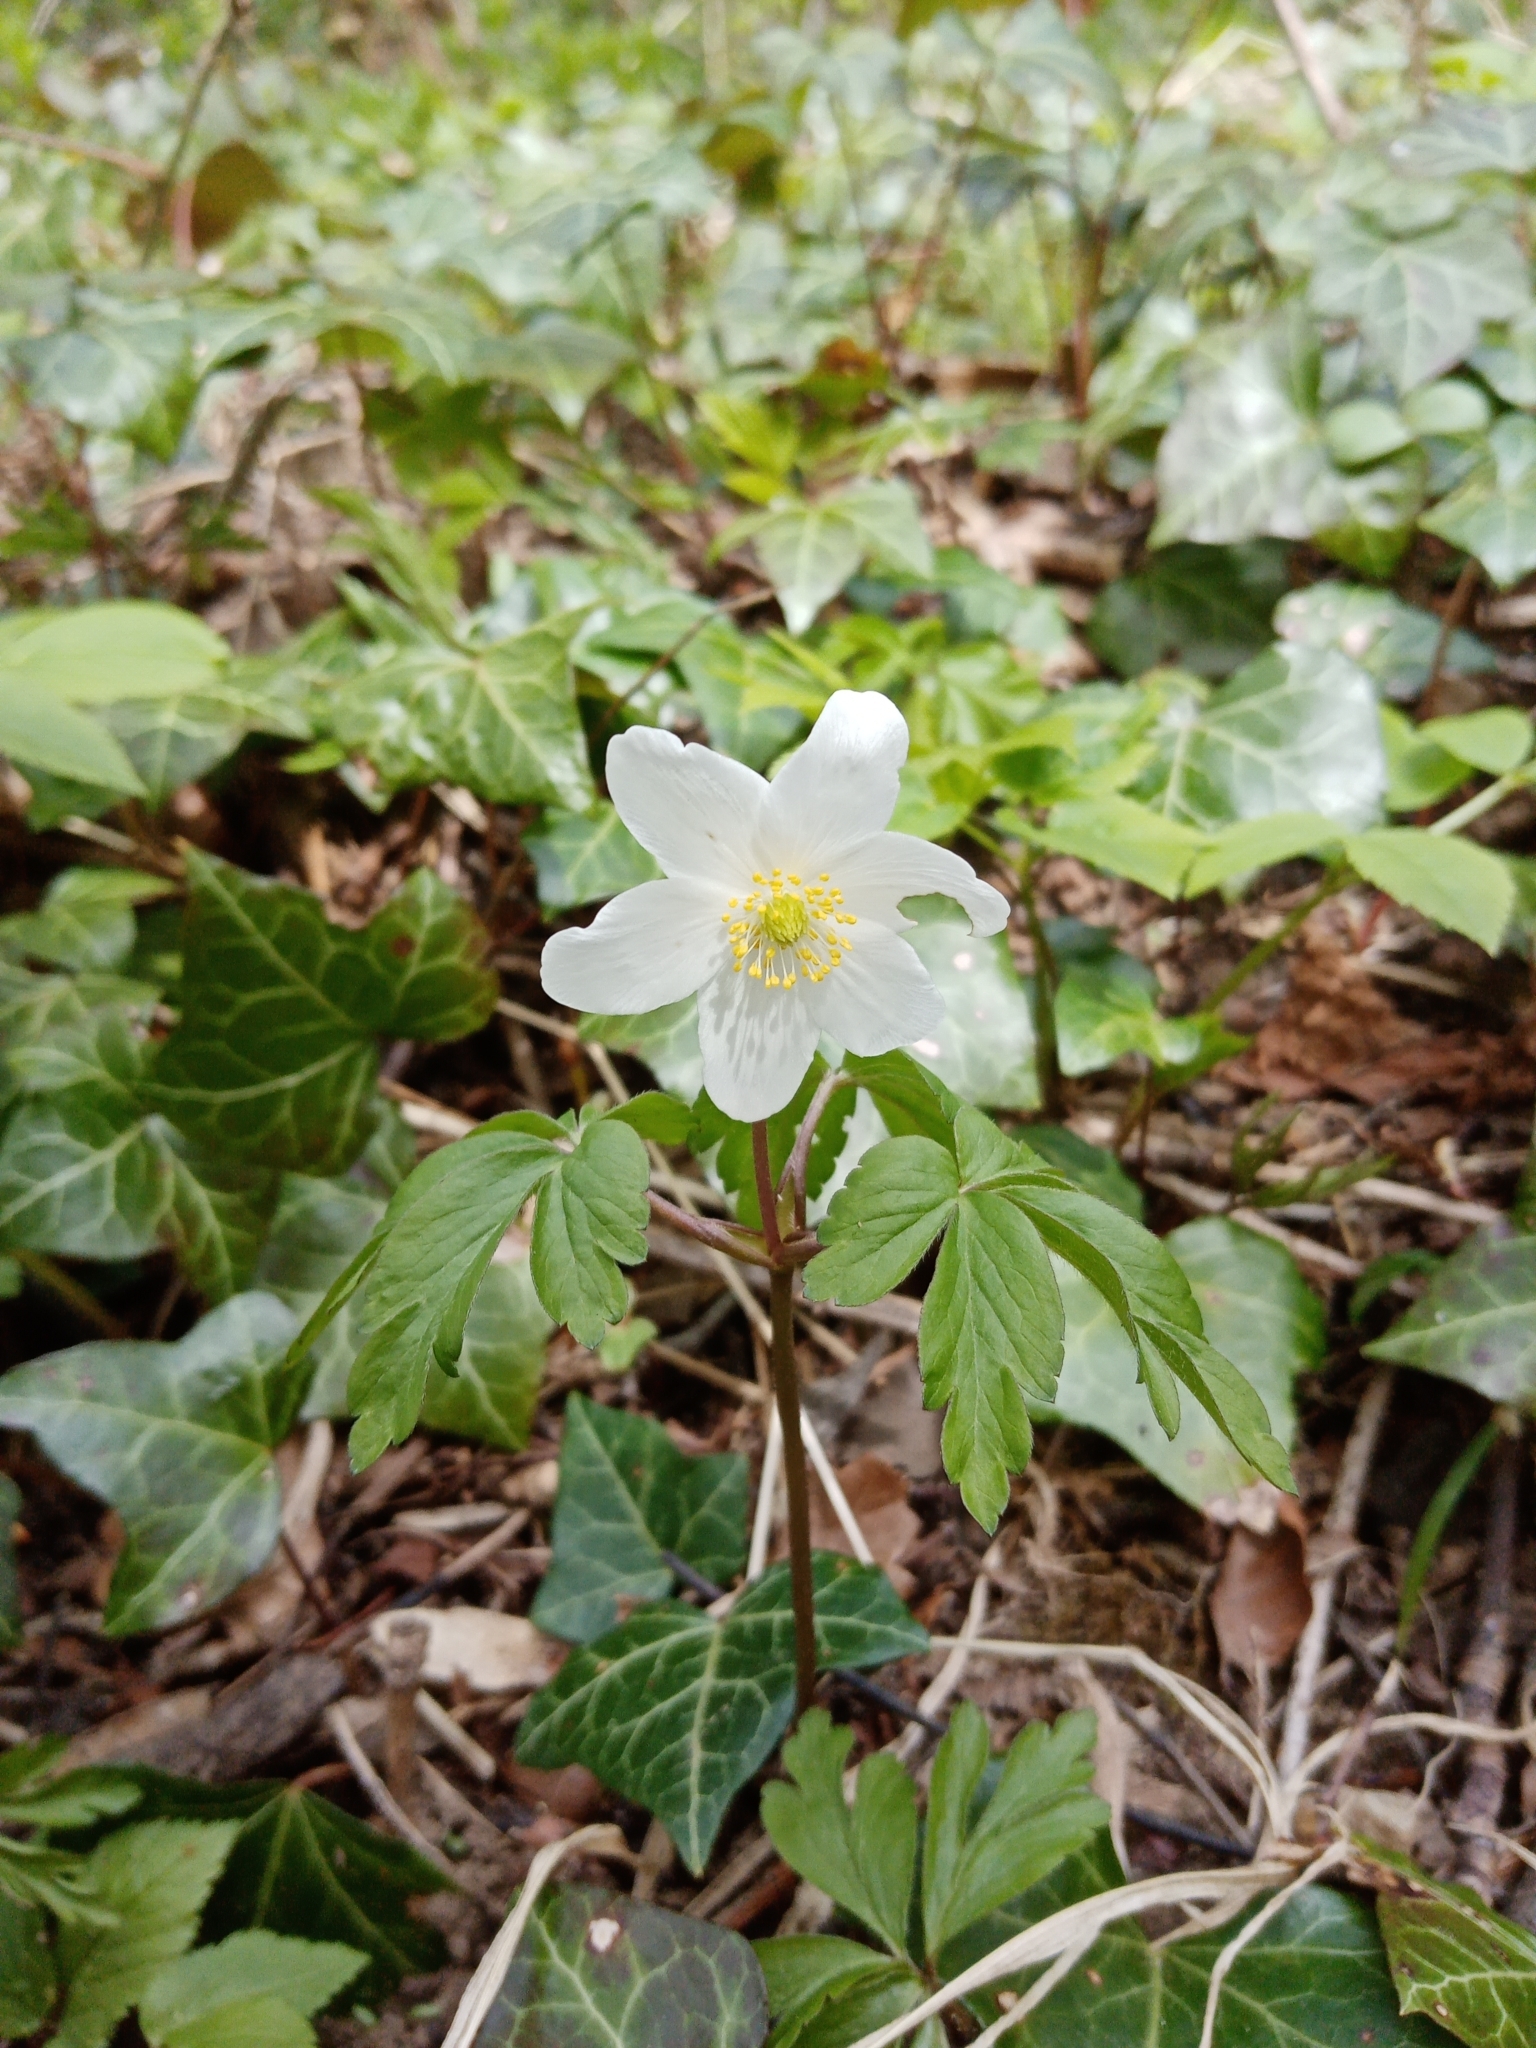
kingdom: Plantae
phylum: Tracheophyta
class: Magnoliopsida
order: Ranunculales
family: Ranunculaceae
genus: Anemone
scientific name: Anemone nemorosa
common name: Wood anemone
